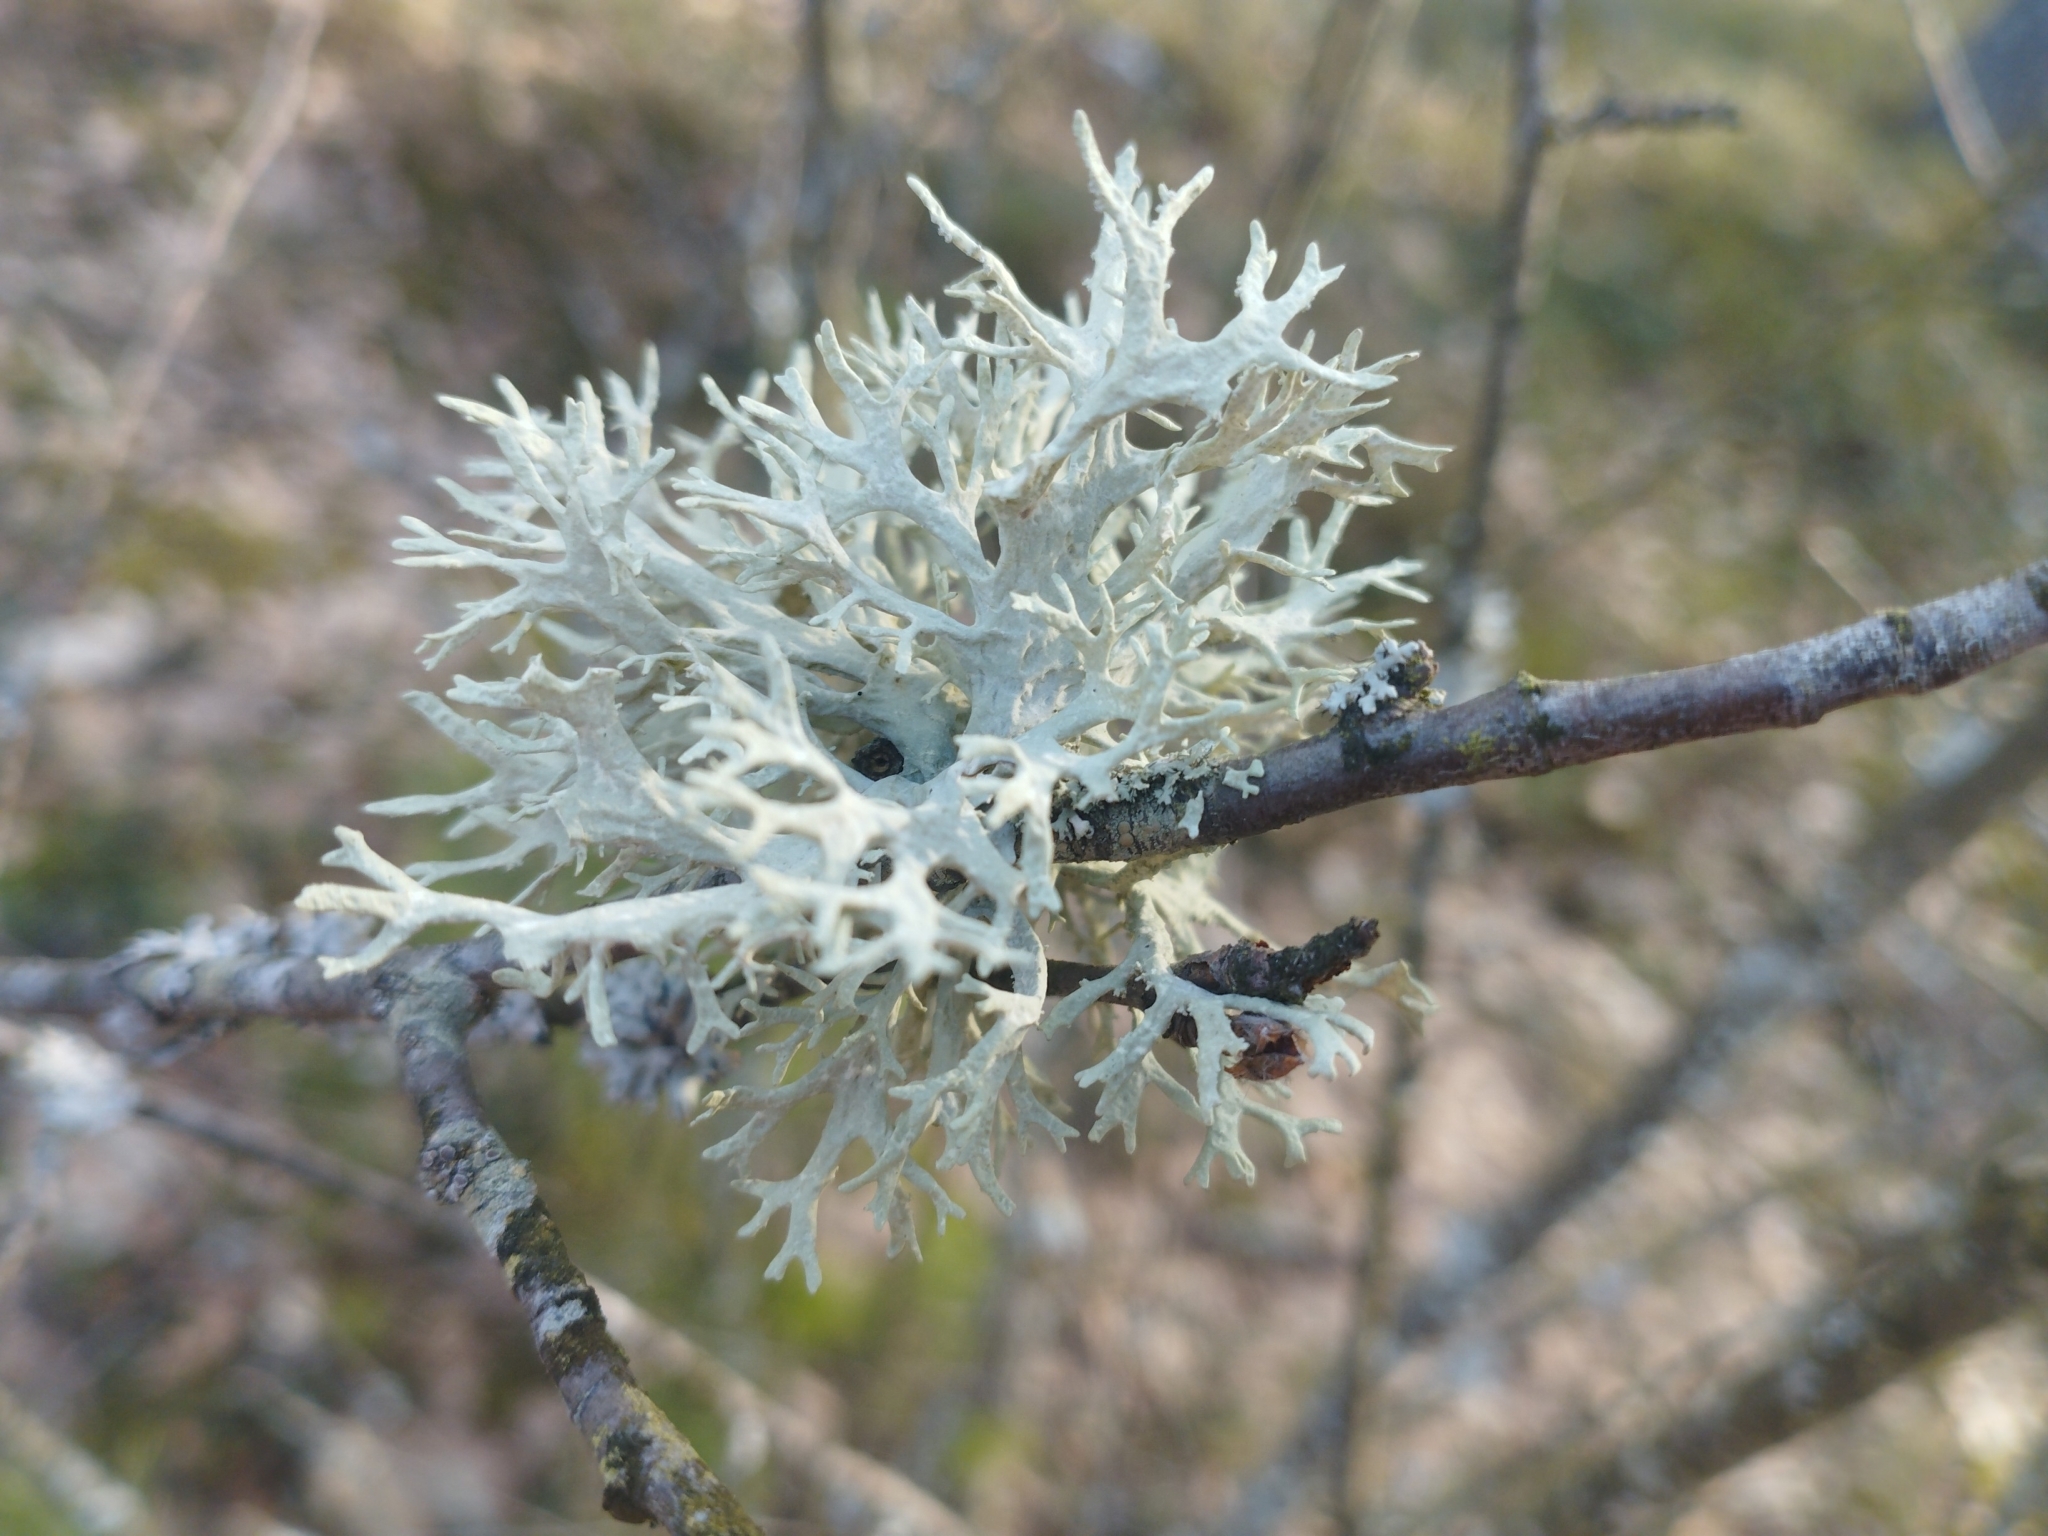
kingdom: Fungi
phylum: Ascomycota
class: Lecanoromycetes
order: Lecanorales
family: Parmeliaceae
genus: Evernia
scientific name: Evernia prunastri
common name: Oak moss
